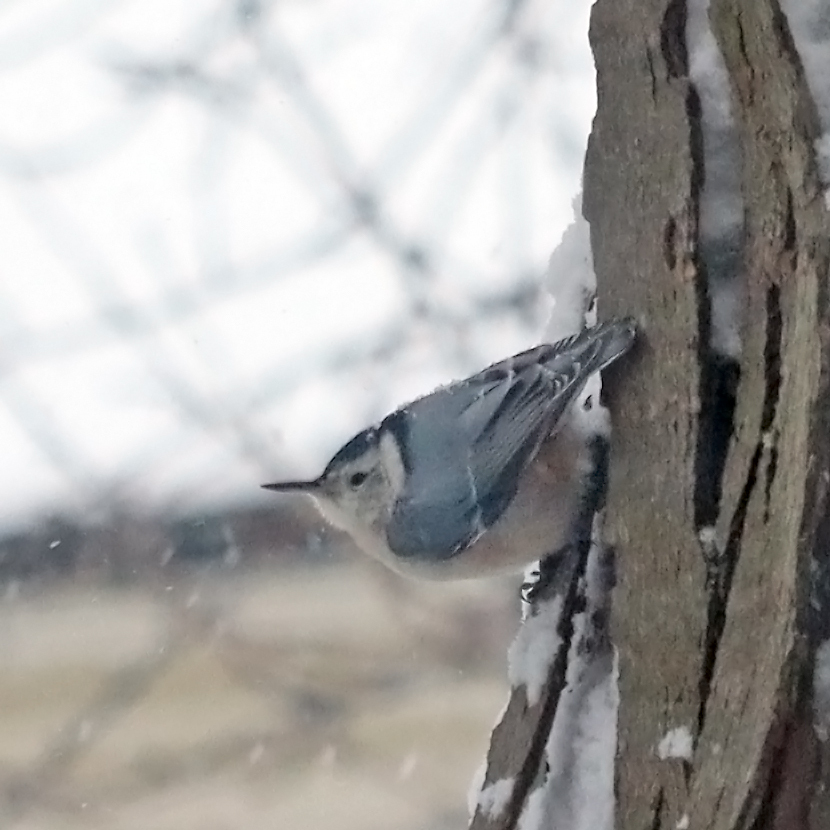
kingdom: Animalia
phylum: Chordata
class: Aves
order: Passeriformes
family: Sittidae
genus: Sitta
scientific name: Sitta carolinensis
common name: White-breasted nuthatch
